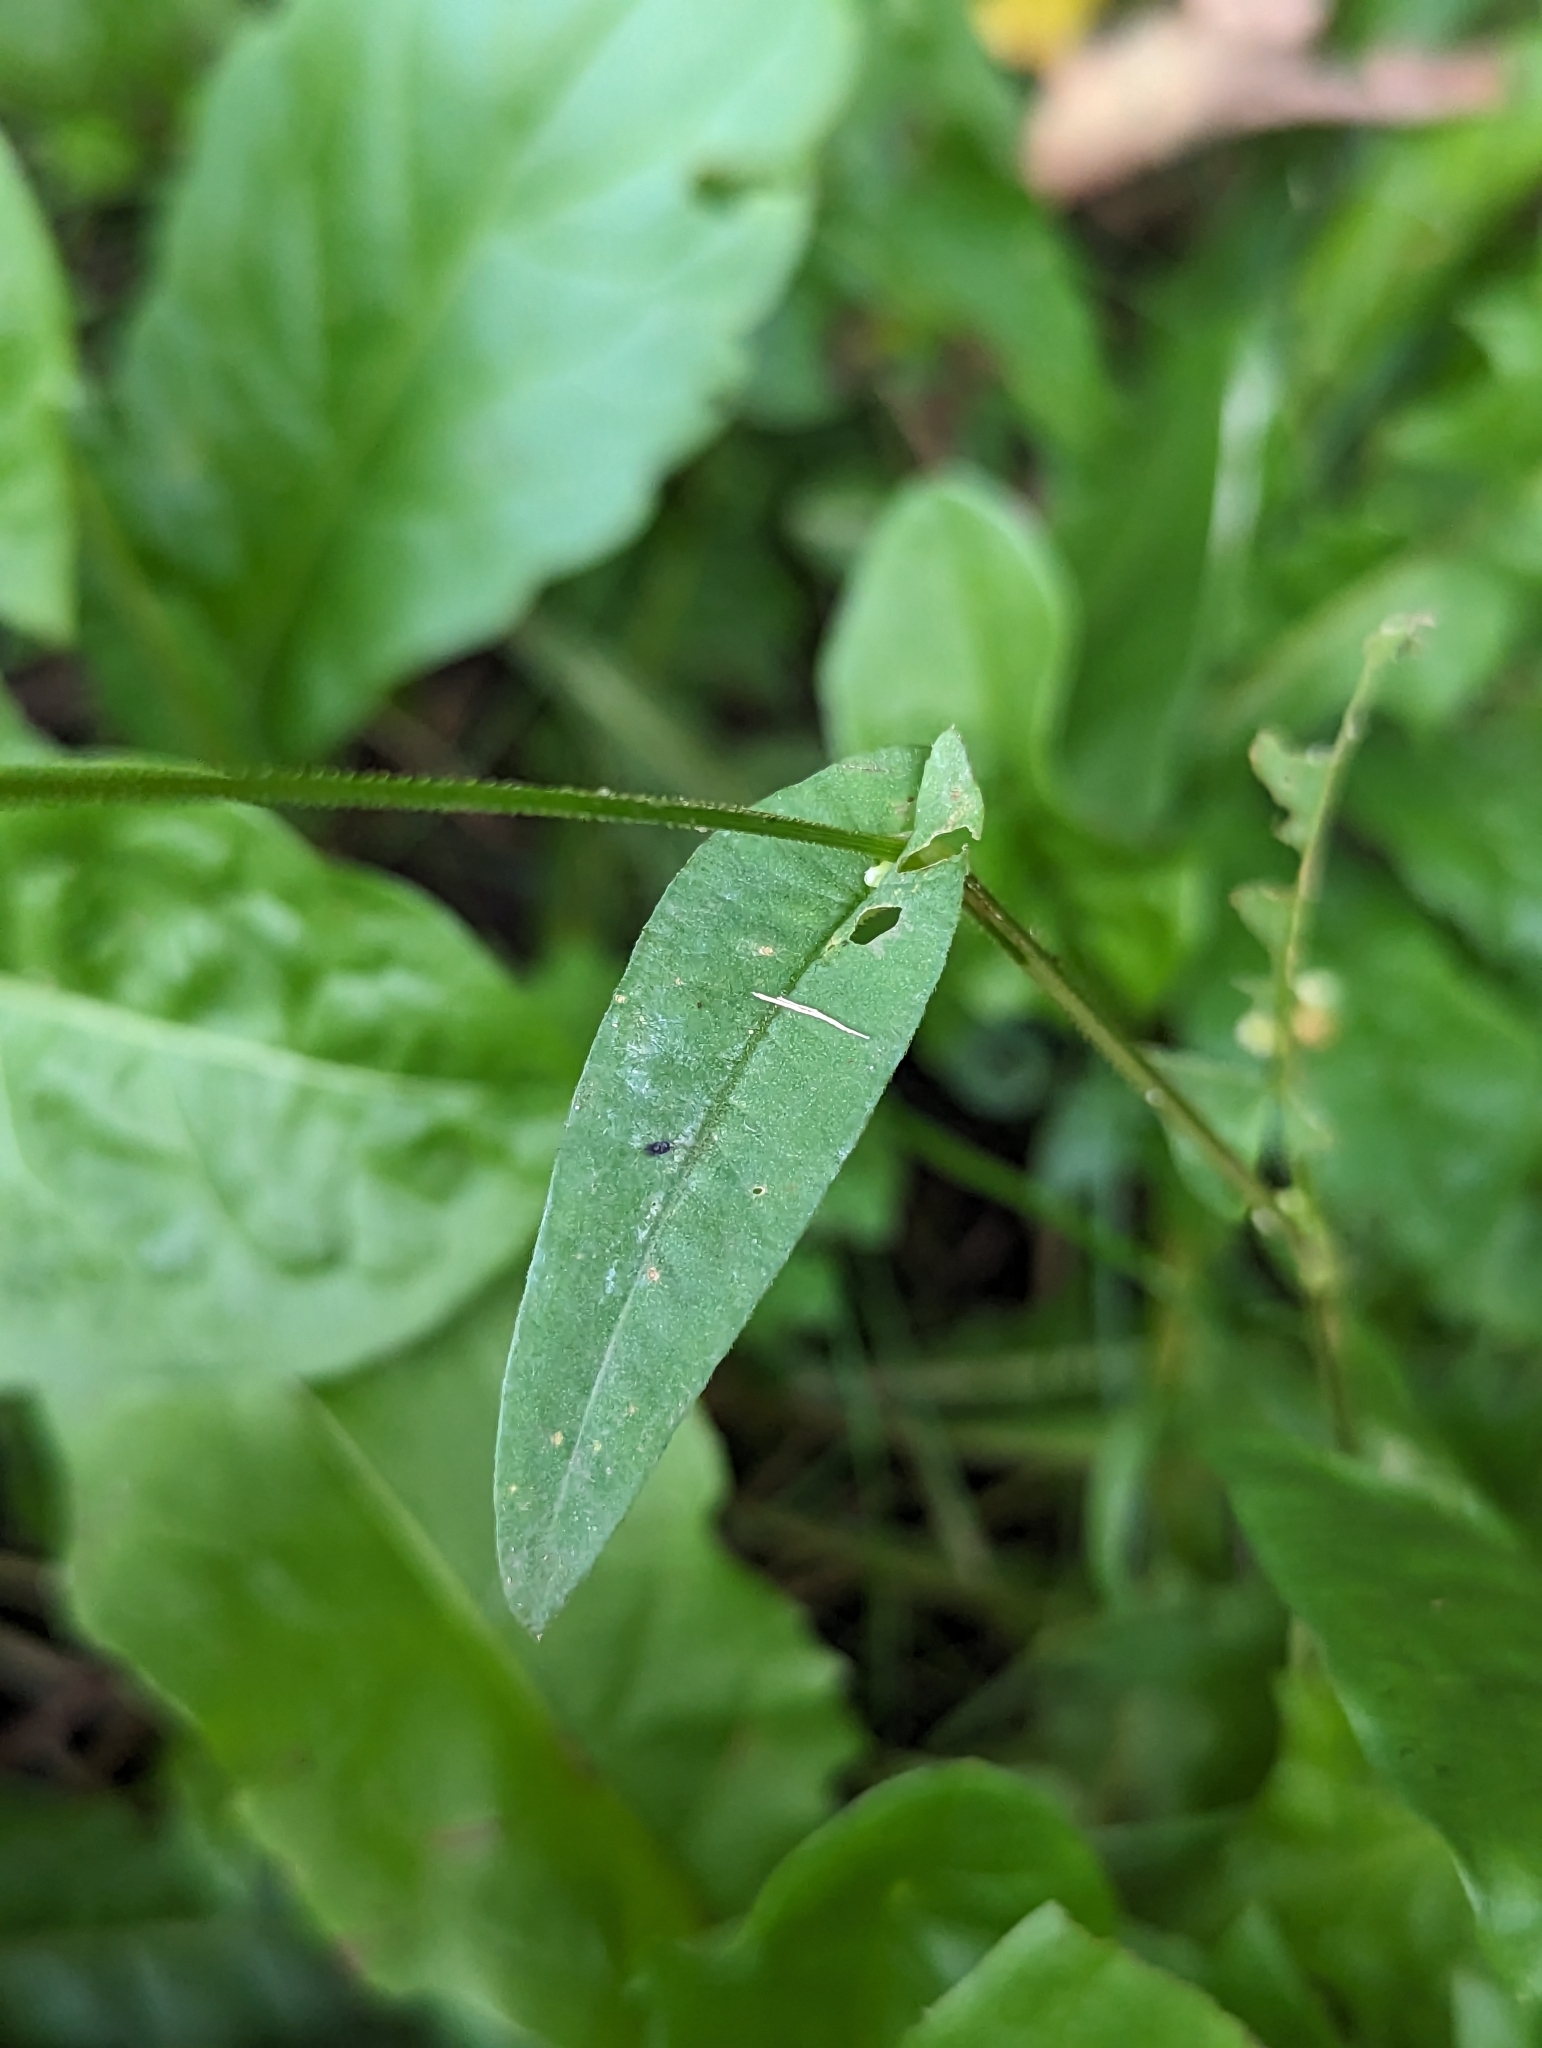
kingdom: Plantae
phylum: Tracheophyta
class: Magnoliopsida
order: Caryophyllales
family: Polygonaceae
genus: Persicaria
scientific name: Persicaria sagittata
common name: American tearthumb
